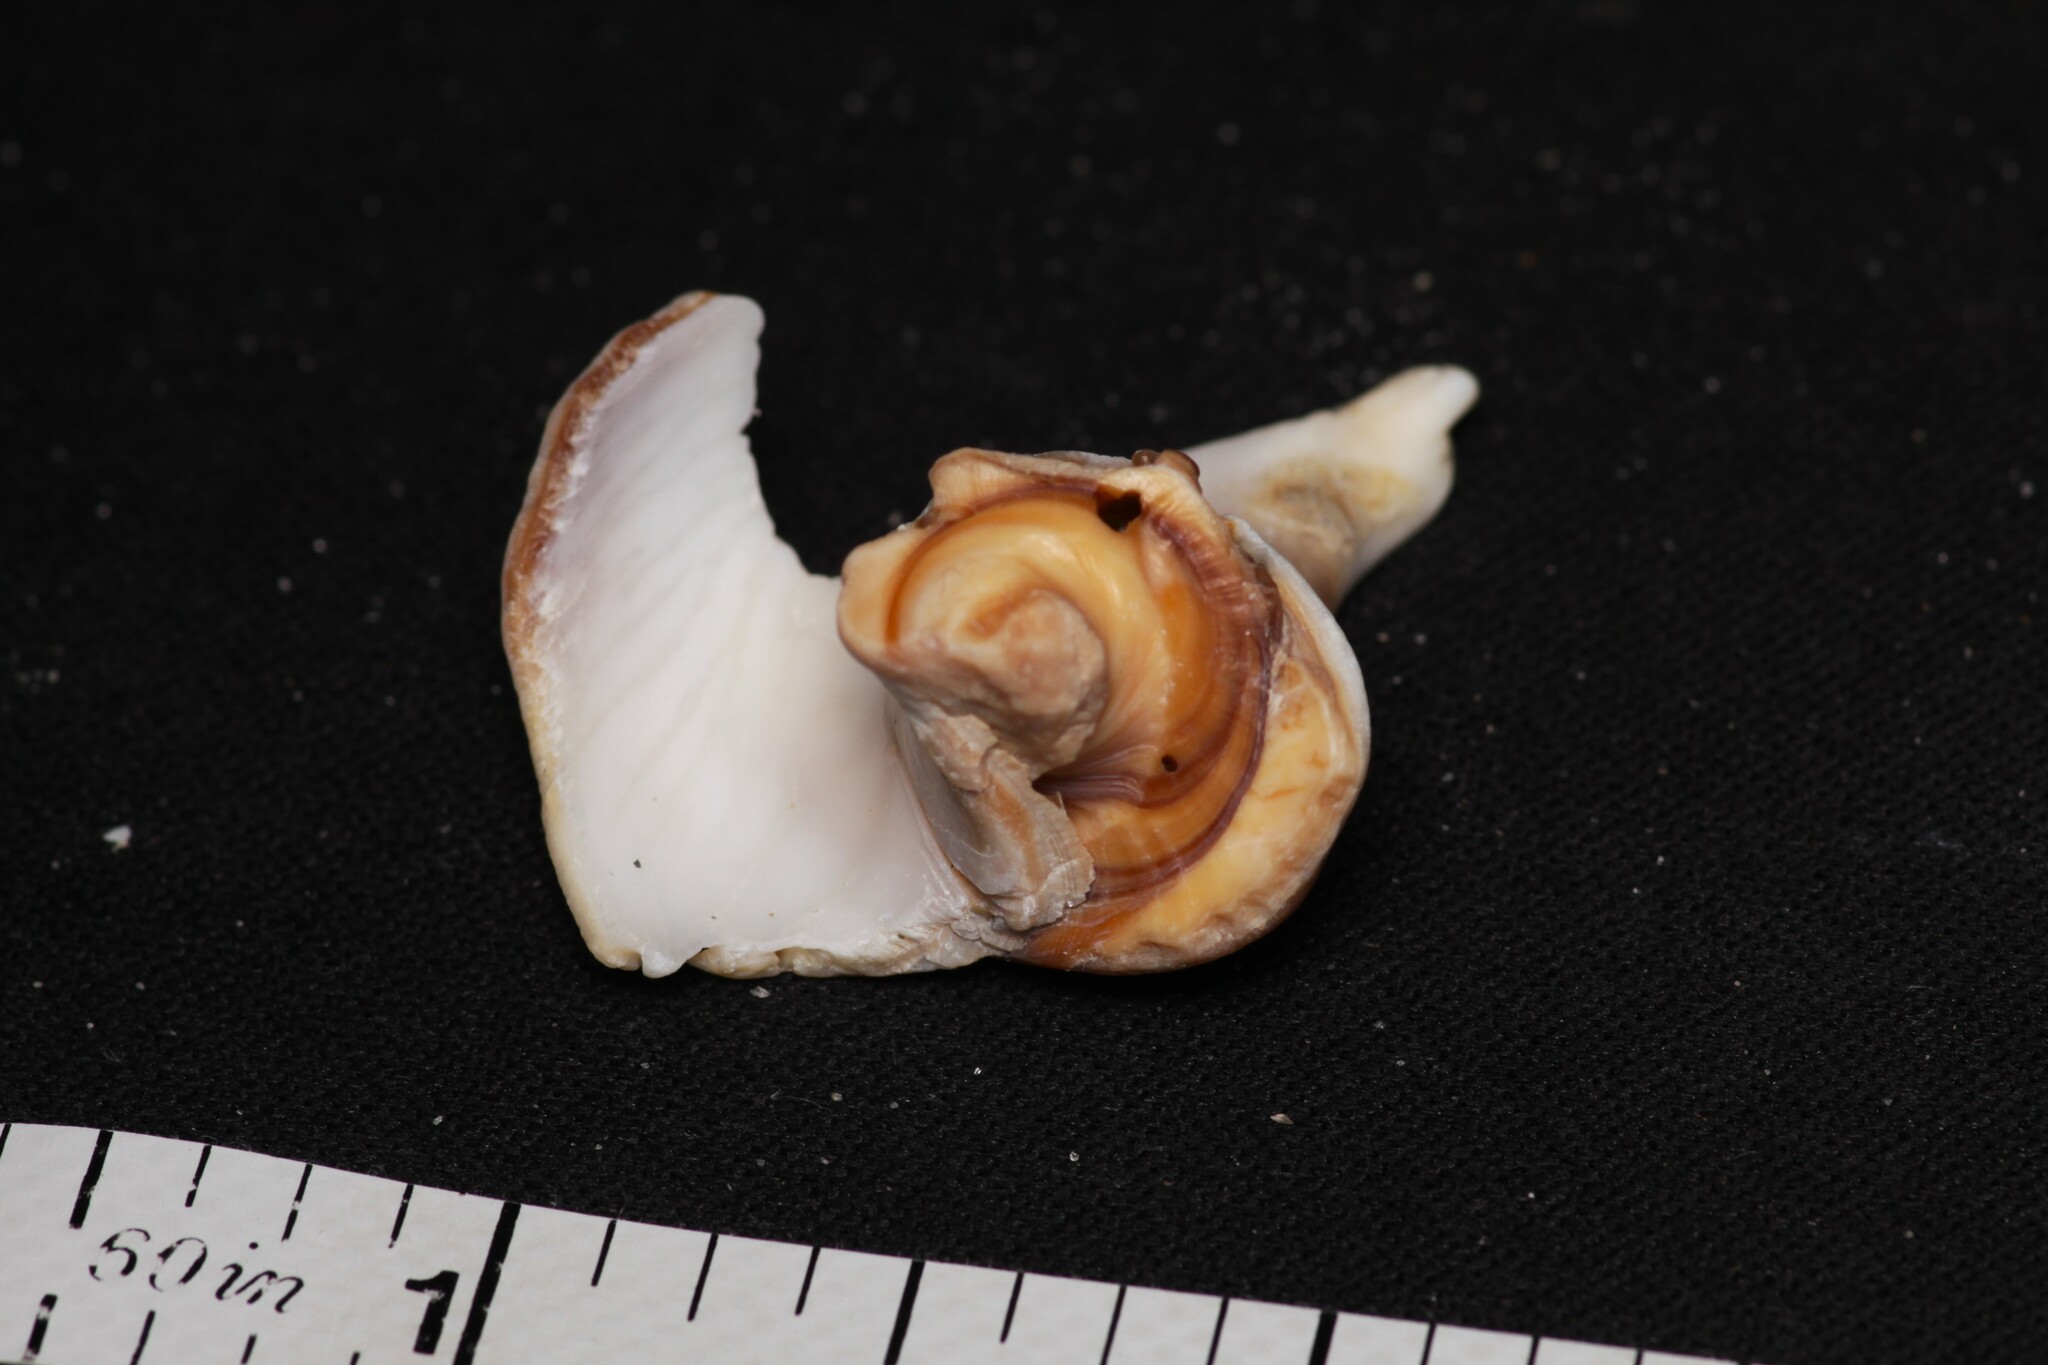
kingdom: Animalia
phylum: Mollusca
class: Gastropoda
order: Littorinimorpha
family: Naticidae
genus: Neverita
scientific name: Neverita duplicata
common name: Lobed moonsnail
